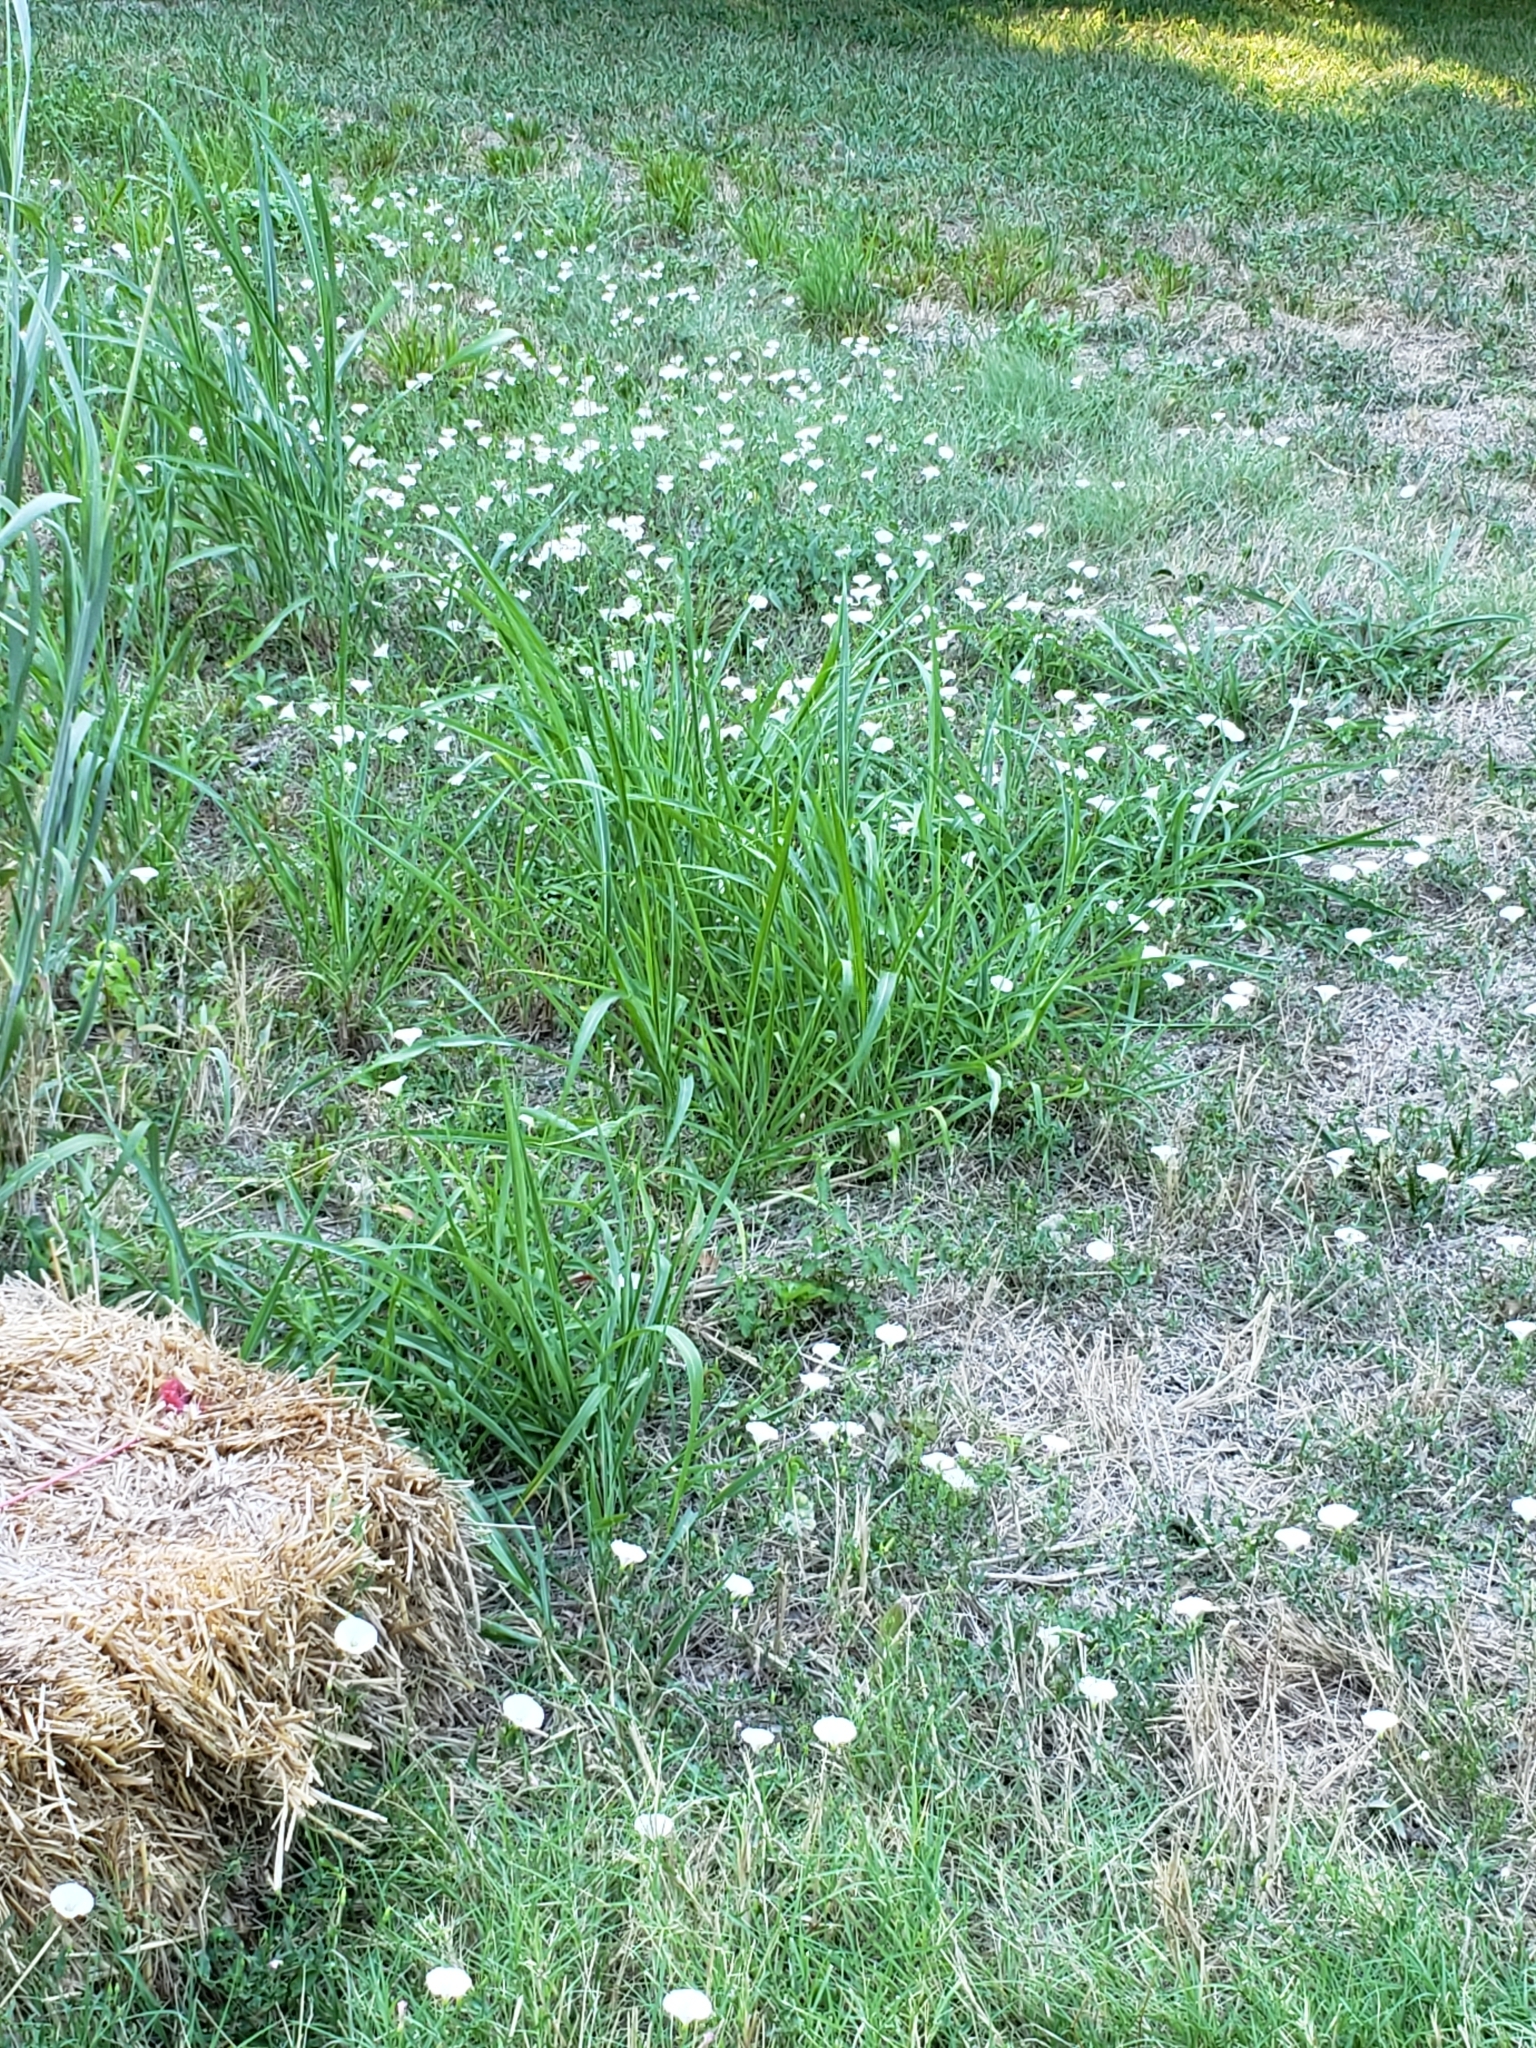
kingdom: Plantae
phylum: Tracheophyta
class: Magnoliopsida
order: Solanales
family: Convolvulaceae
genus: Convolvulus
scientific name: Convolvulus arvensis
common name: Field bindweed
